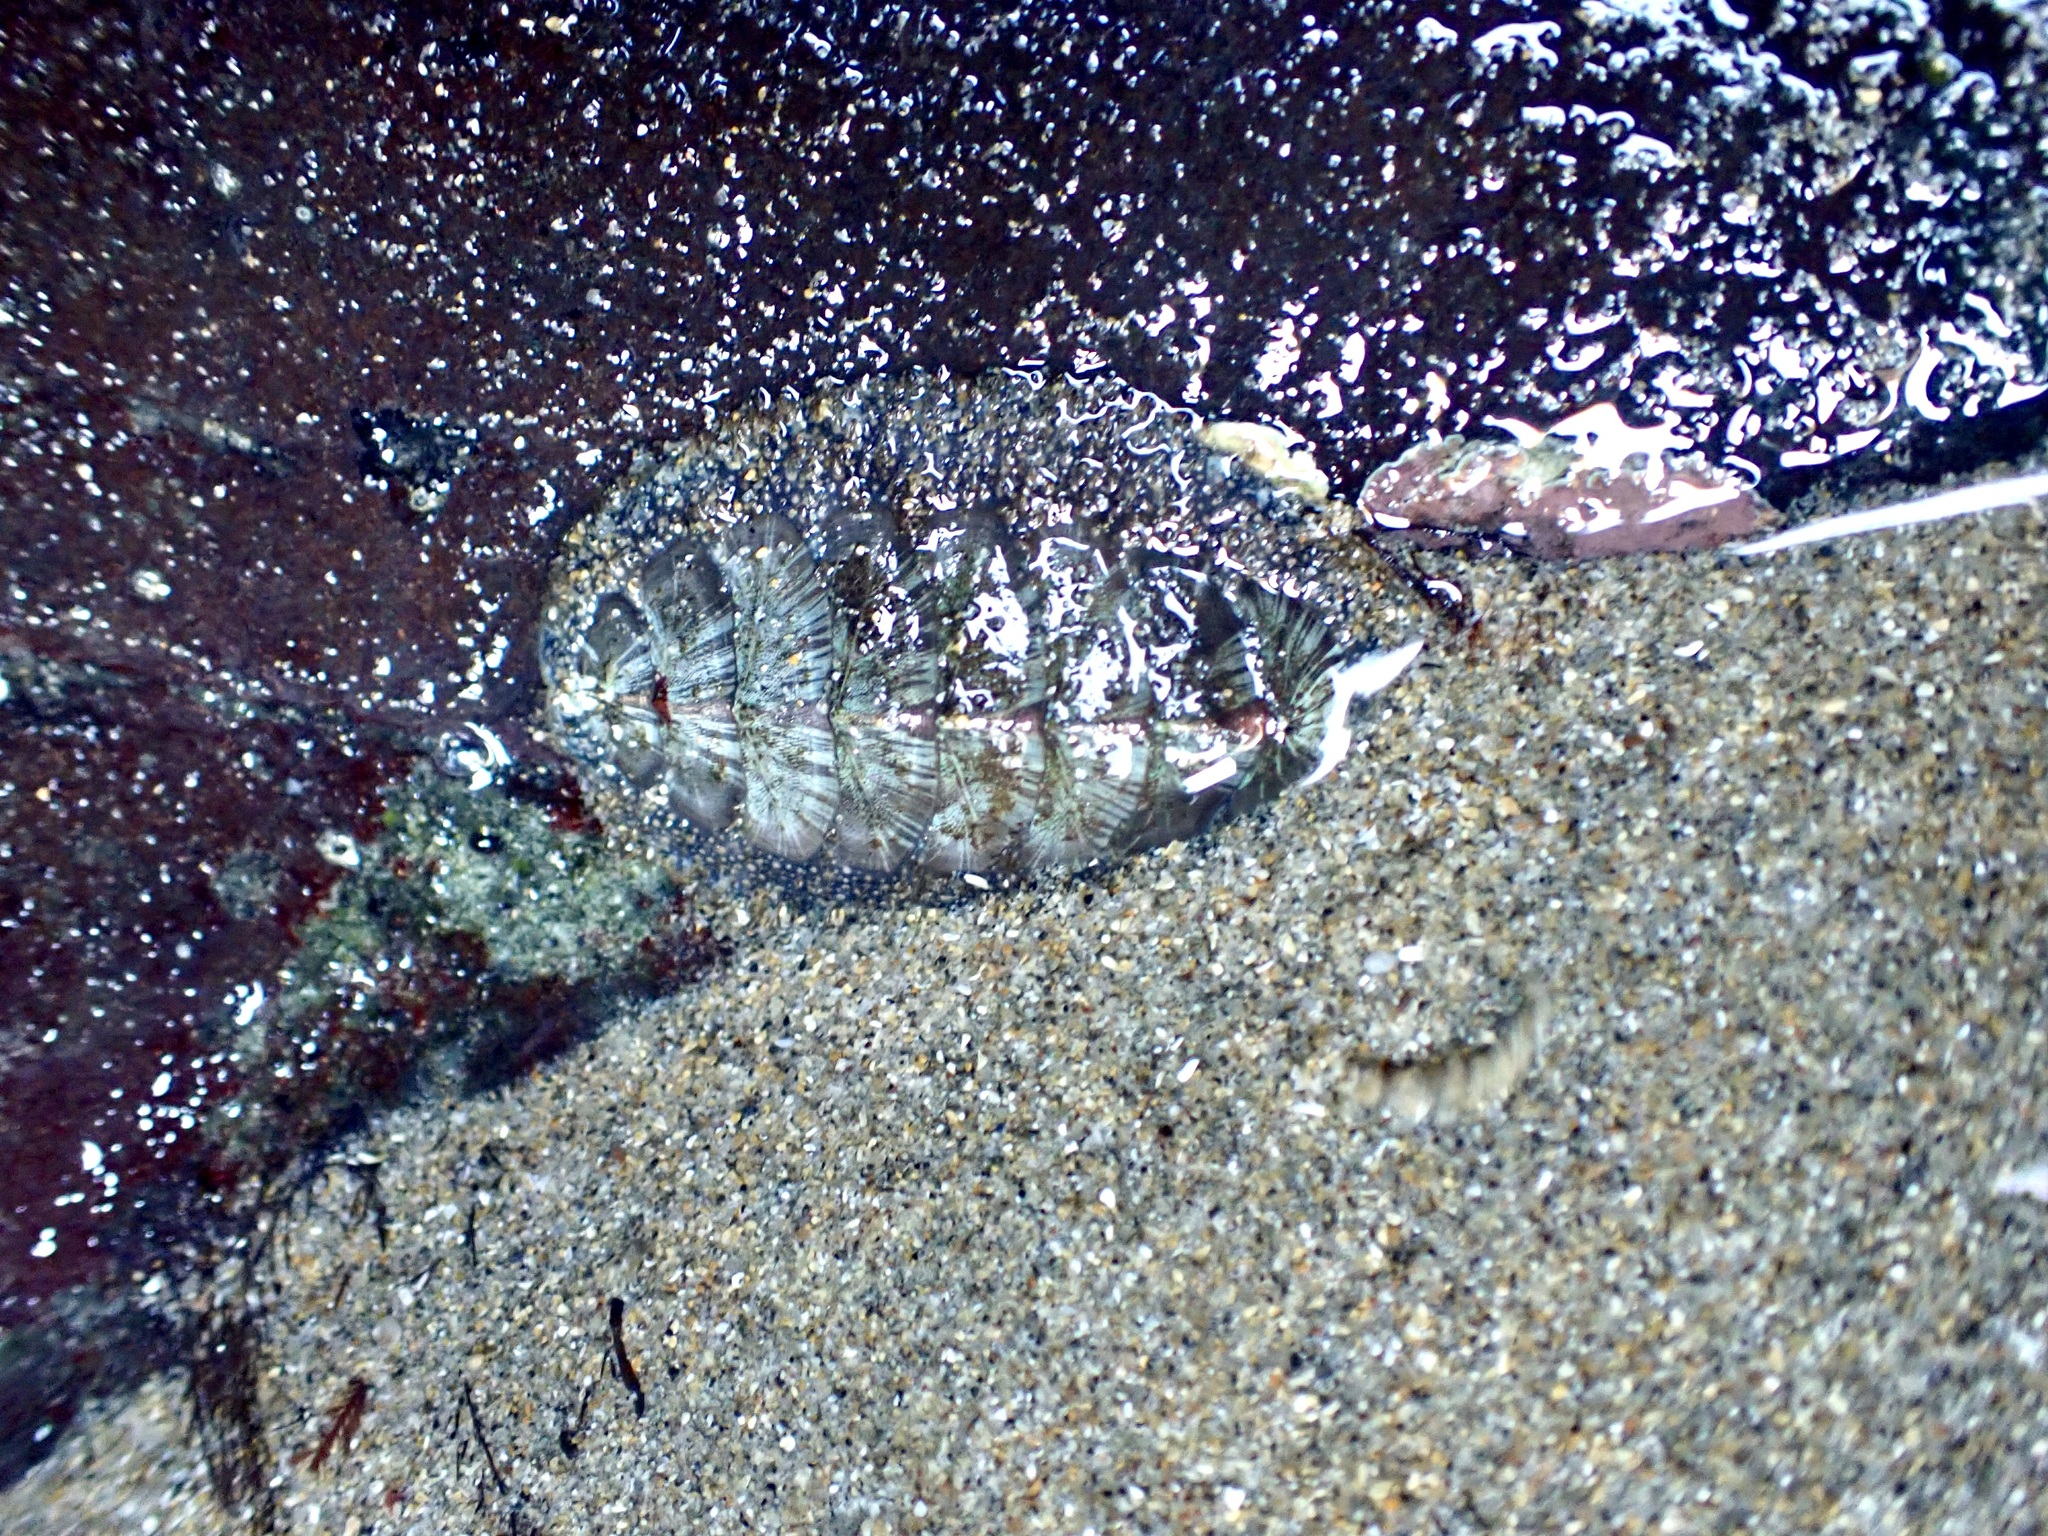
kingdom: Animalia
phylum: Mollusca
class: Polyplacophora
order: Chitonida
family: Mopaliidae
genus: Mopalia
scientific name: Mopalia lignosa
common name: Woody chiton
